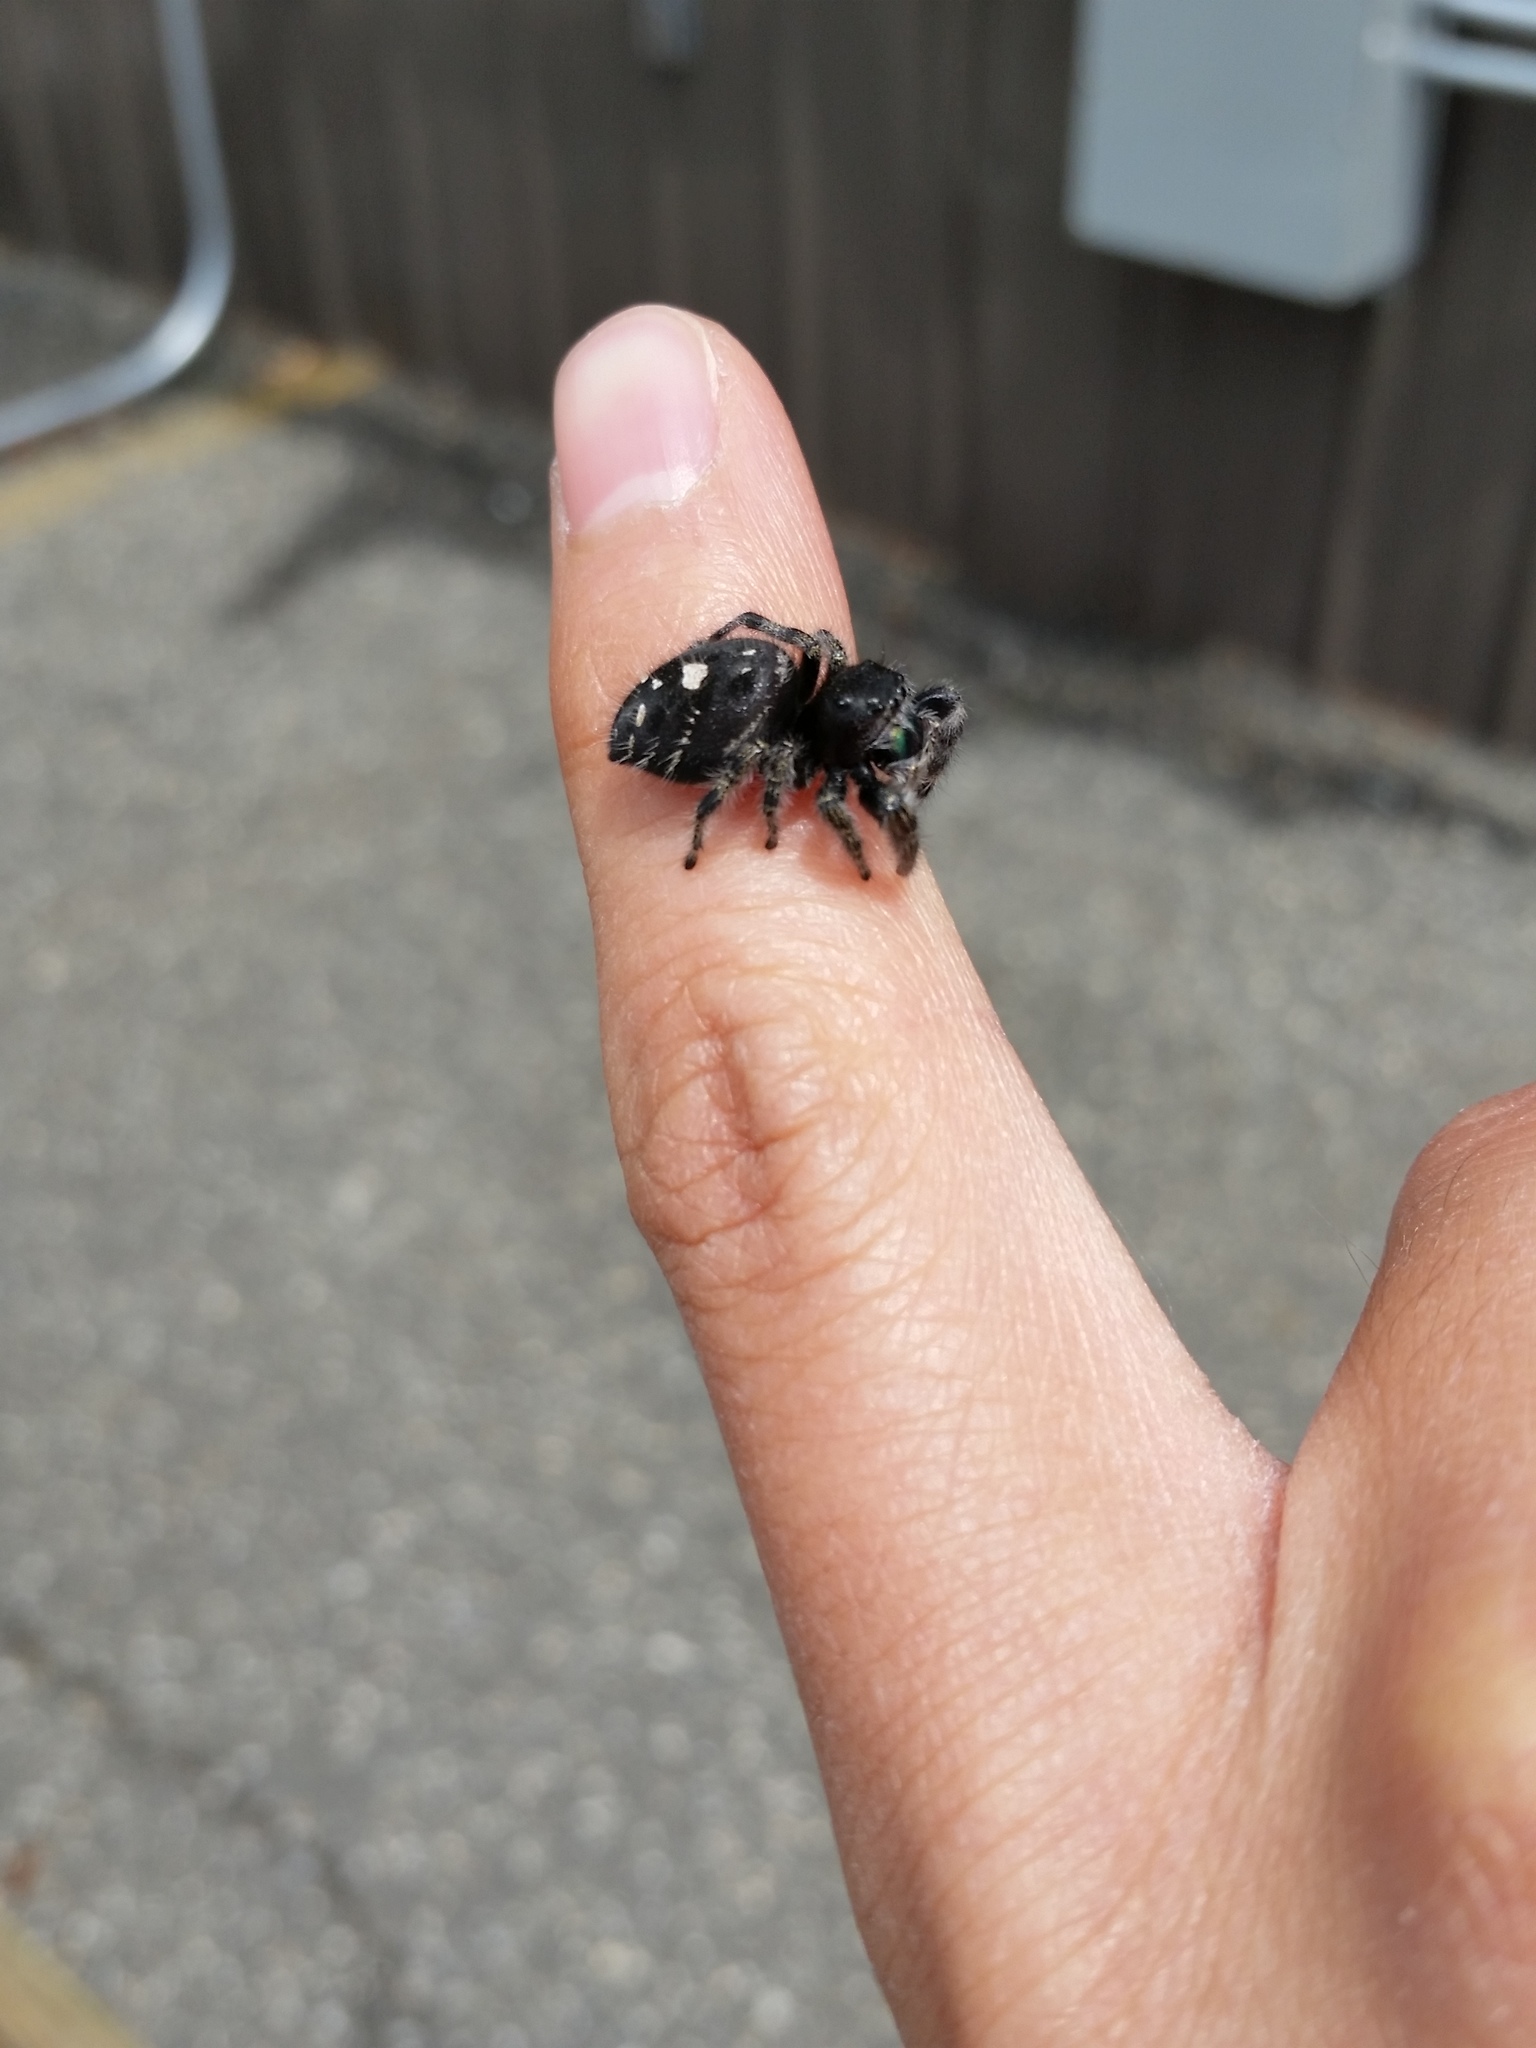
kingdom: Animalia
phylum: Arthropoda
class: Arachnida
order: Araneae
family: Salticidae
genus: Phidippus
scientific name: Phidippus audax
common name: Bold jumper
